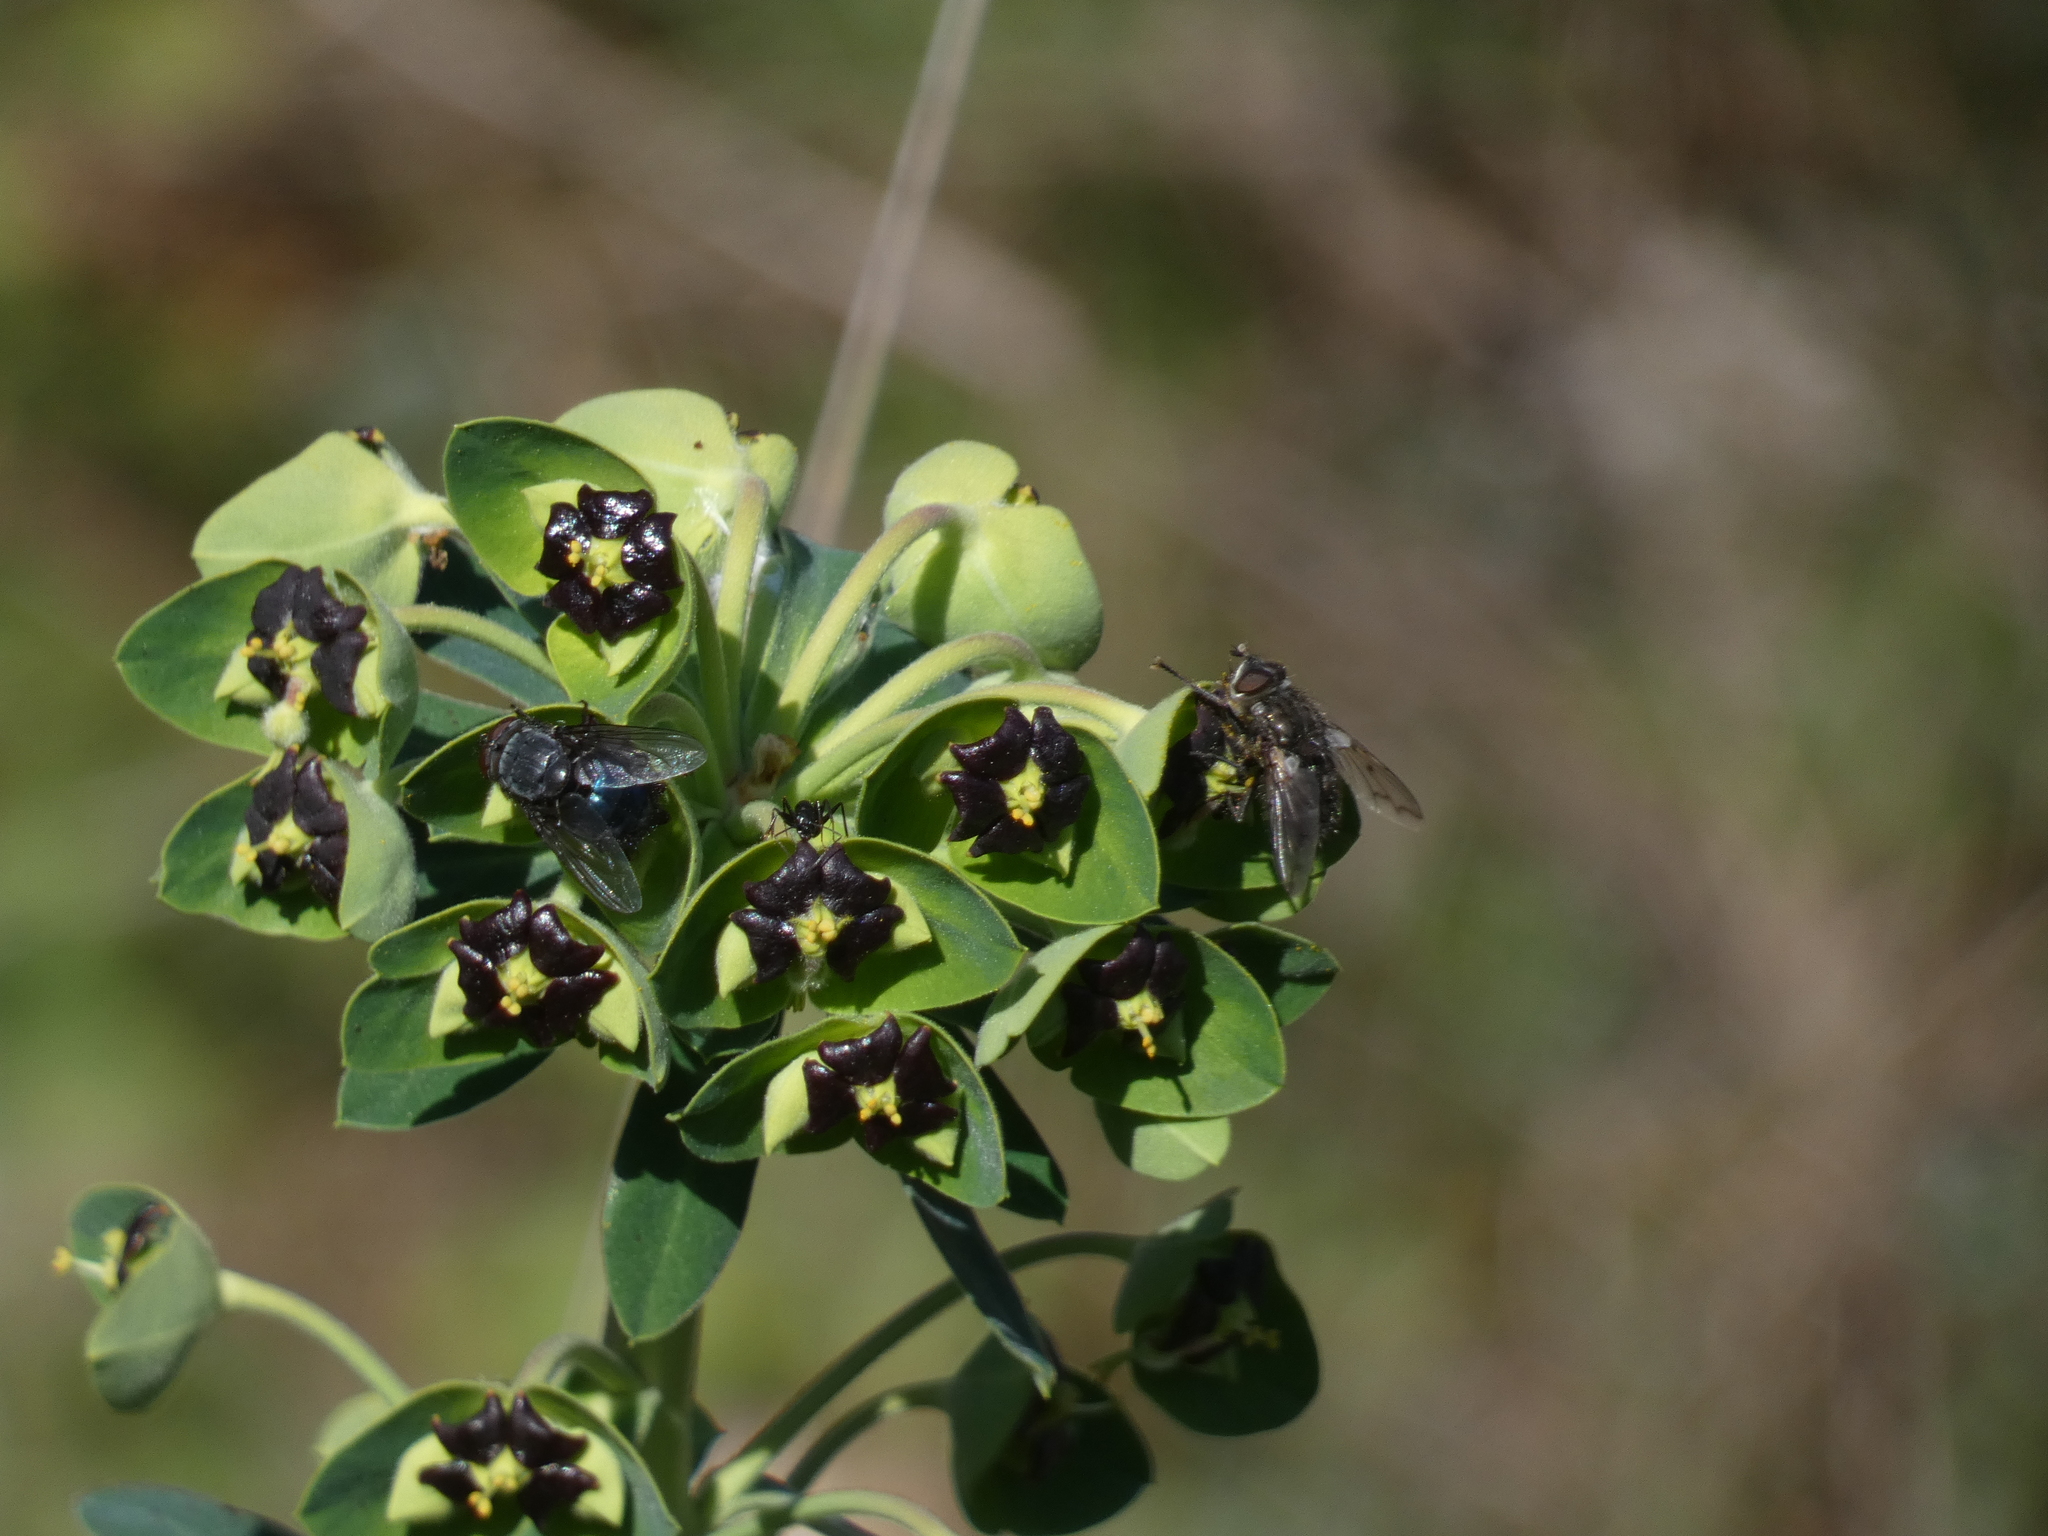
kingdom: Animalia
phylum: Arthropoda
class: Insecta
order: Diptera
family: Tachinidae
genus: Panzeria
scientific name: Panzeria puparum
